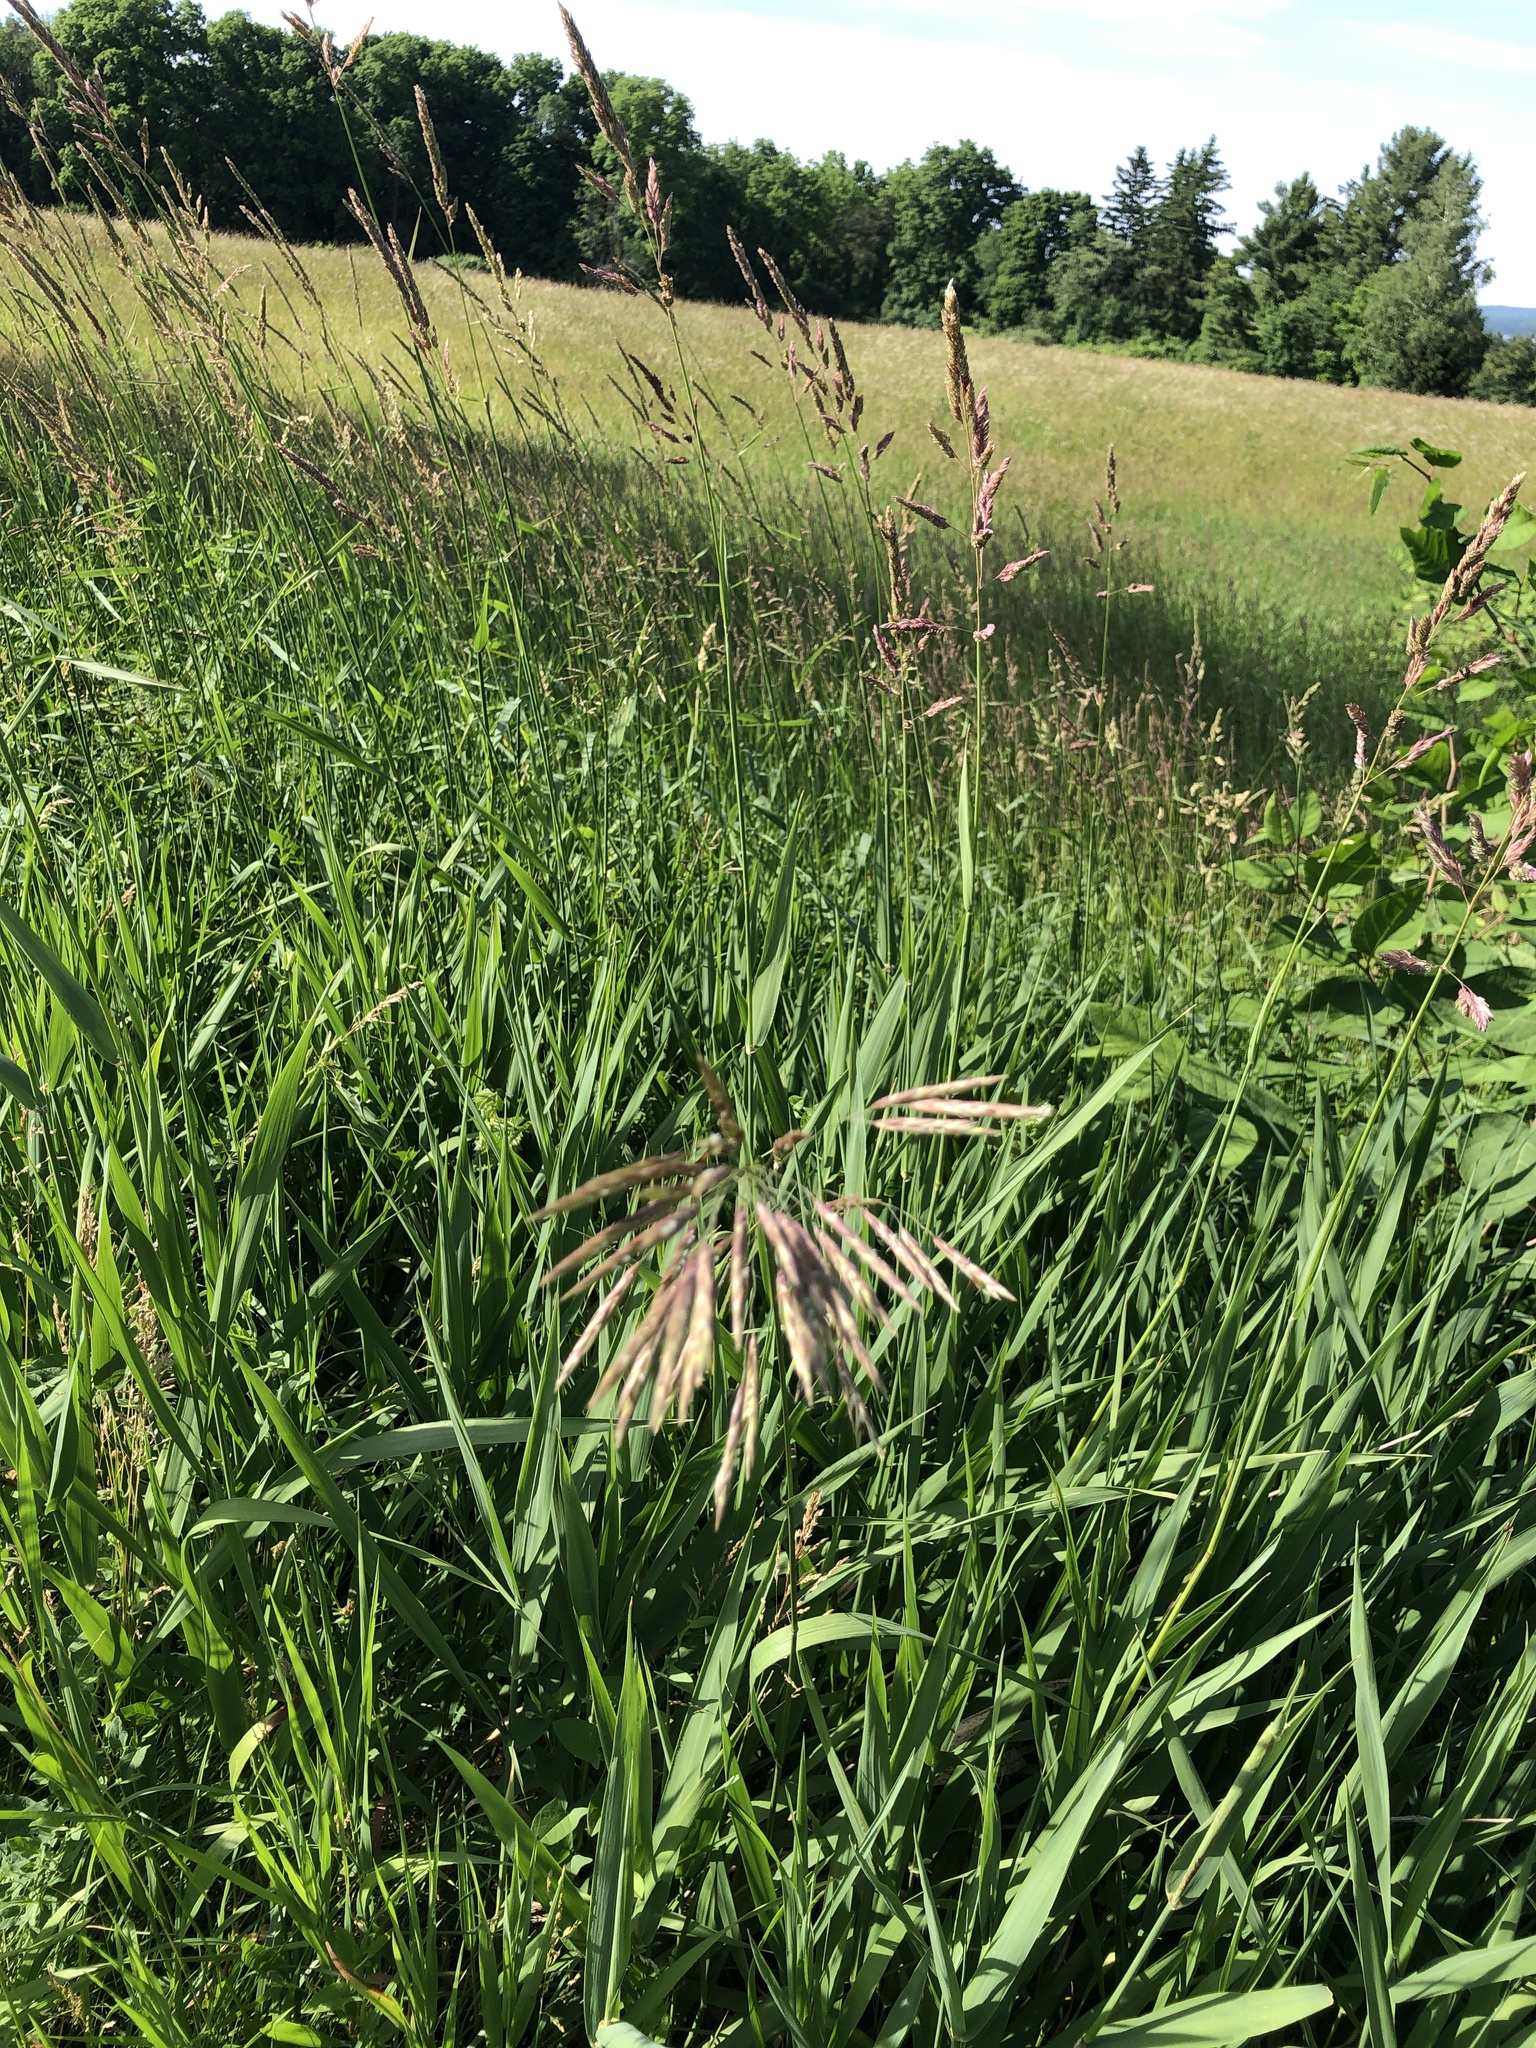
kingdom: Plantae
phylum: Tracheophyta
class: Liliopsida
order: Poales
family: Poaceae
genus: Bromus
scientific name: Bromus inermis
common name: Smooth brome
